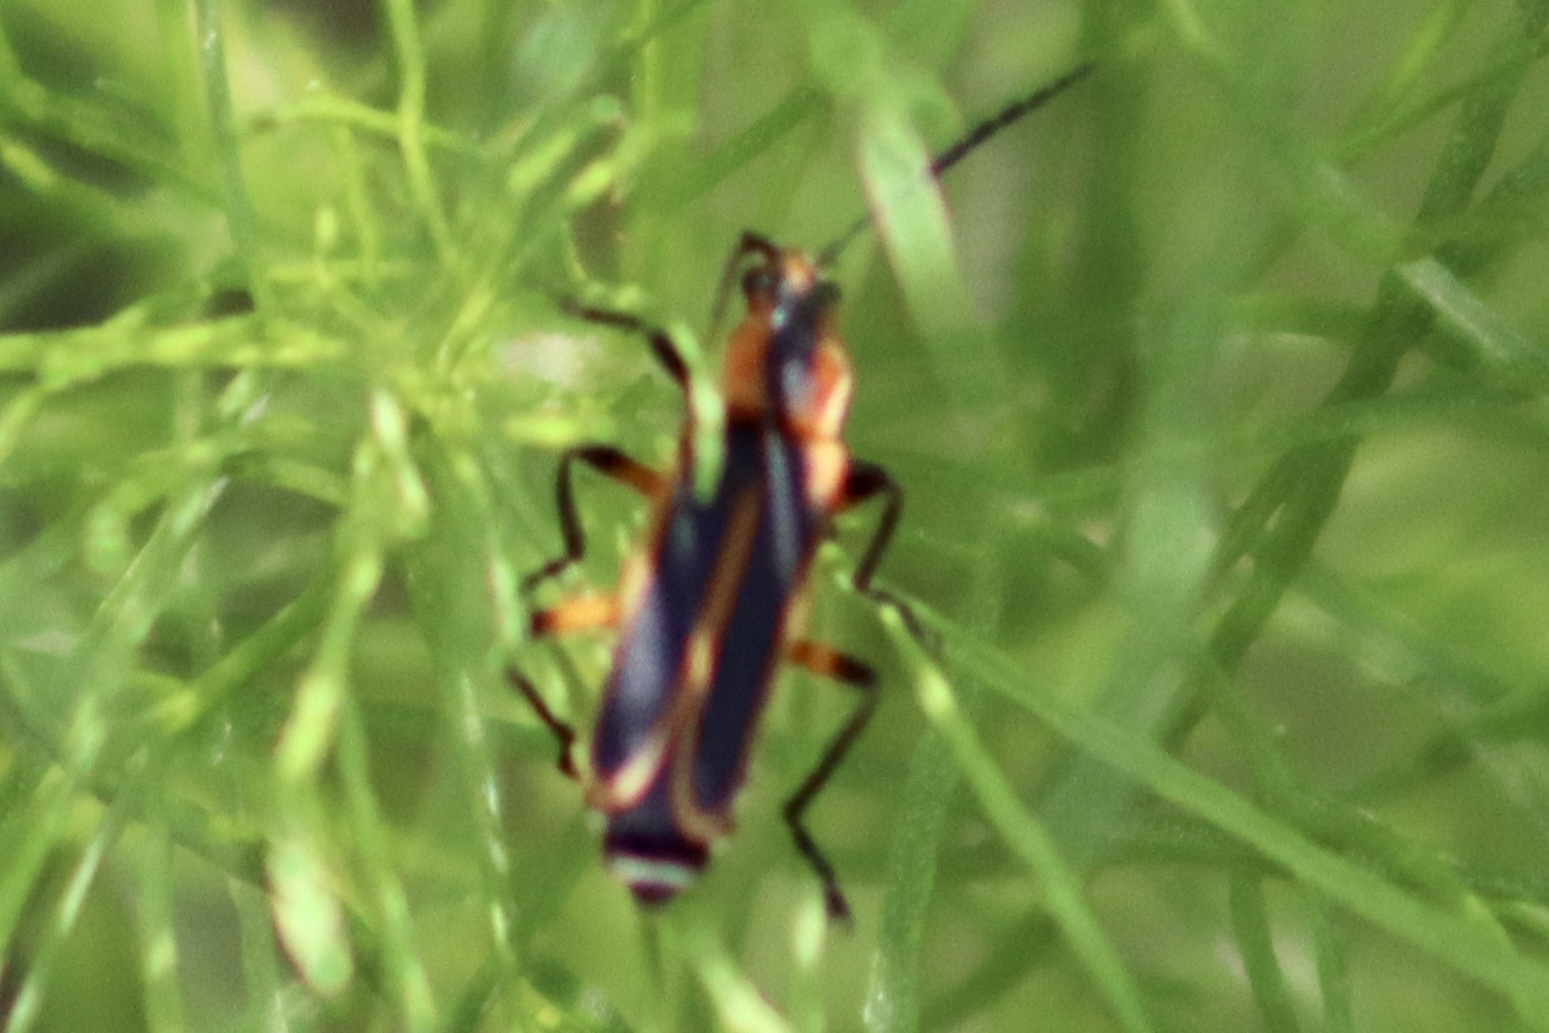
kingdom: Animalia
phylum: Arthropoda
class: Insecta
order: Coleoptera
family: Cantharidae
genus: Chauliognathus
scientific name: Chauliognathus marginatus
